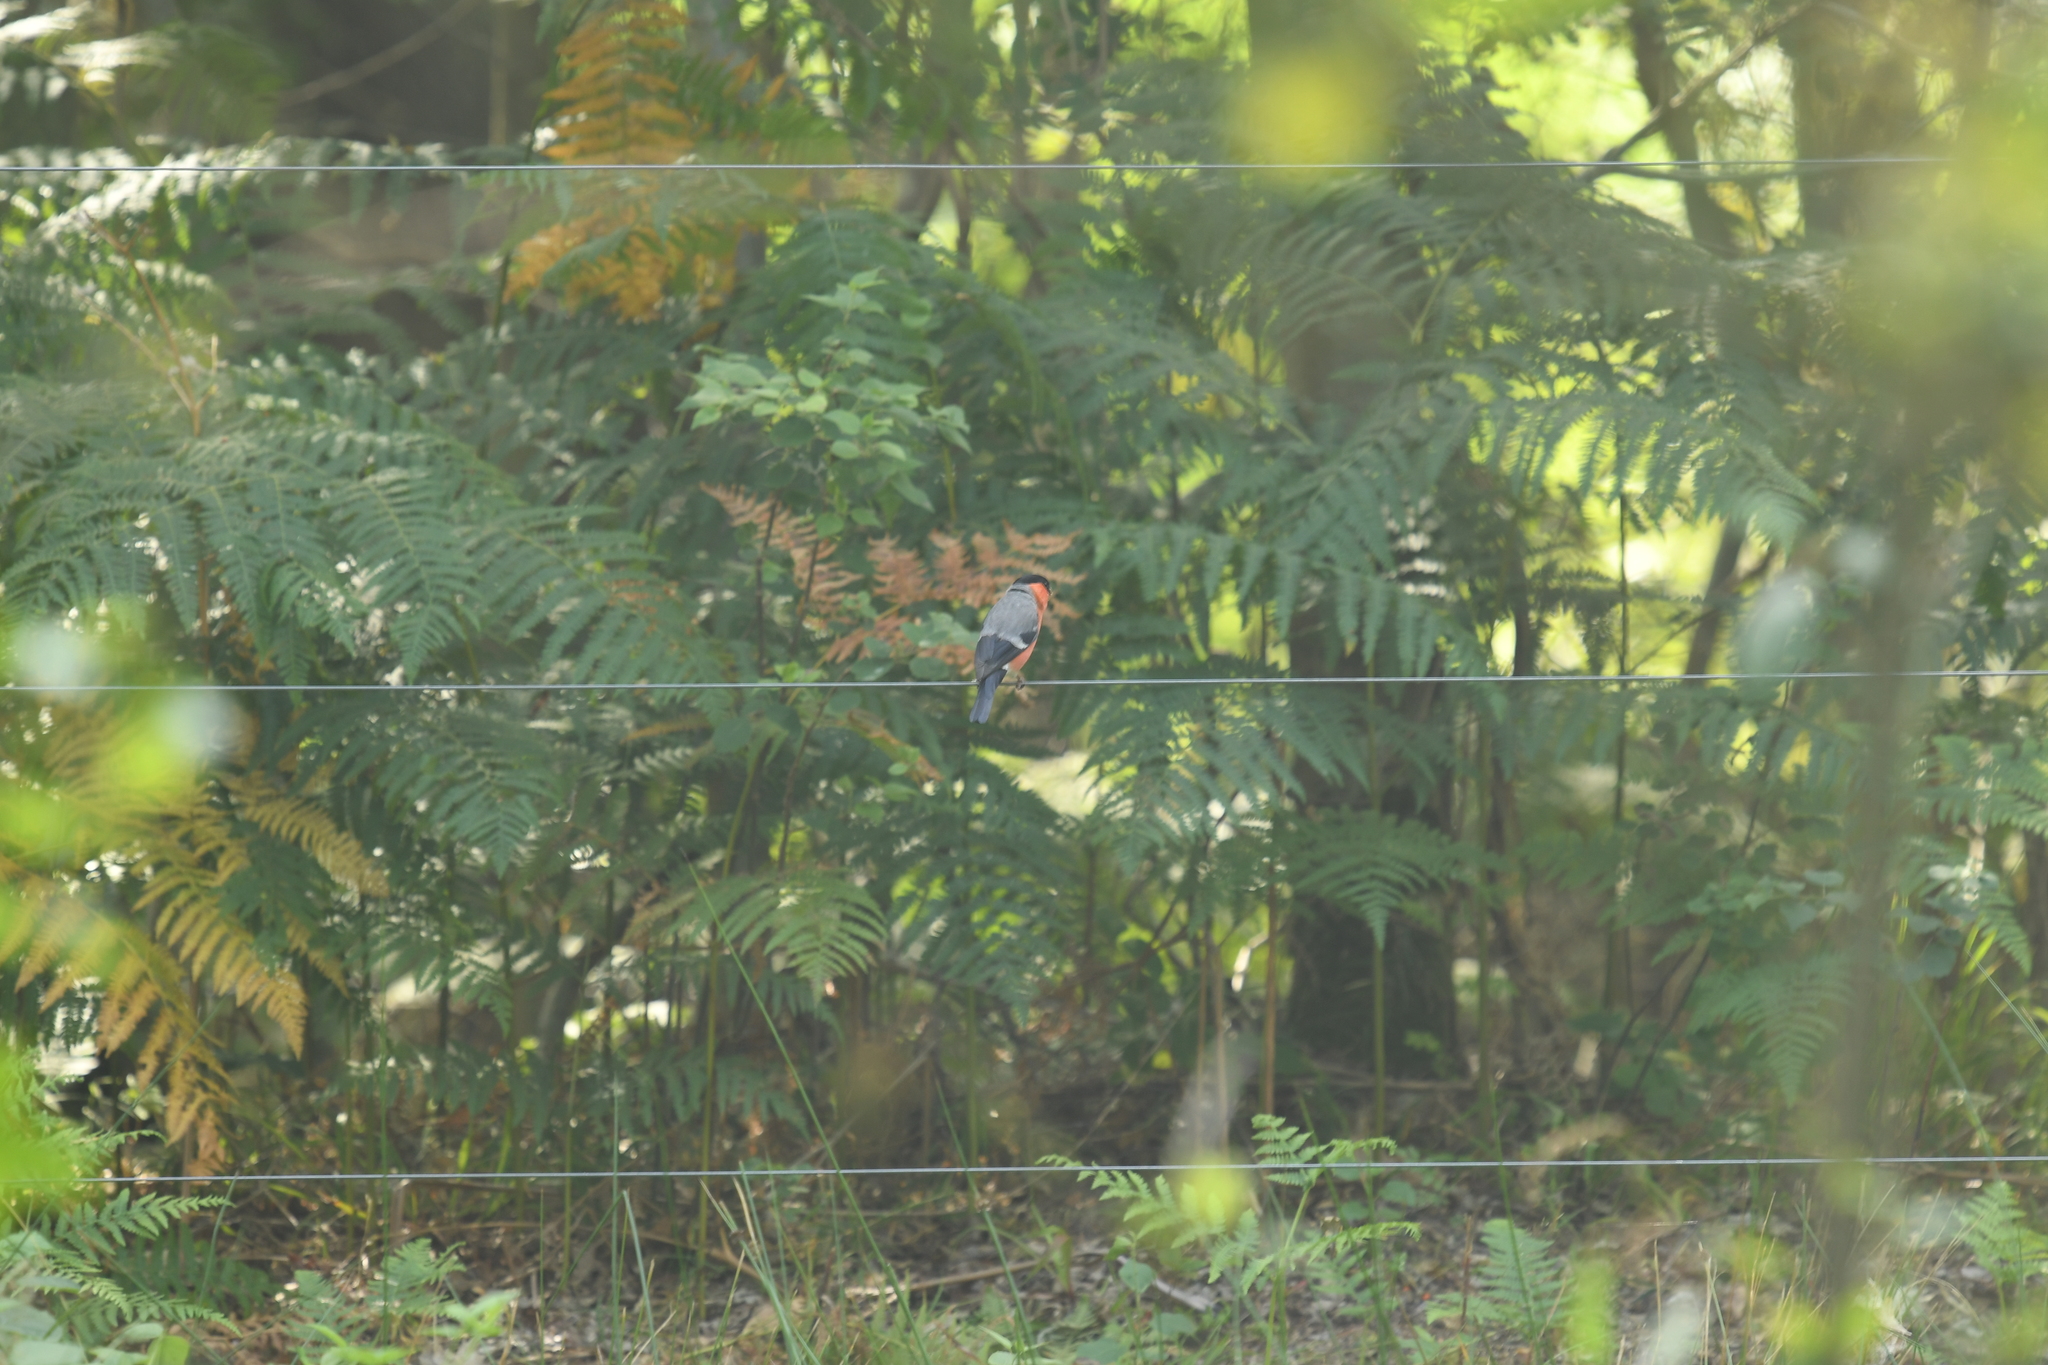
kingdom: Animalia
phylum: Chordata
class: Aves
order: Passeriformes
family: Fringillidae
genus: Pyrrhula
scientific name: Pyrrhula pyrrhula
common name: Eurasian bullfinch
